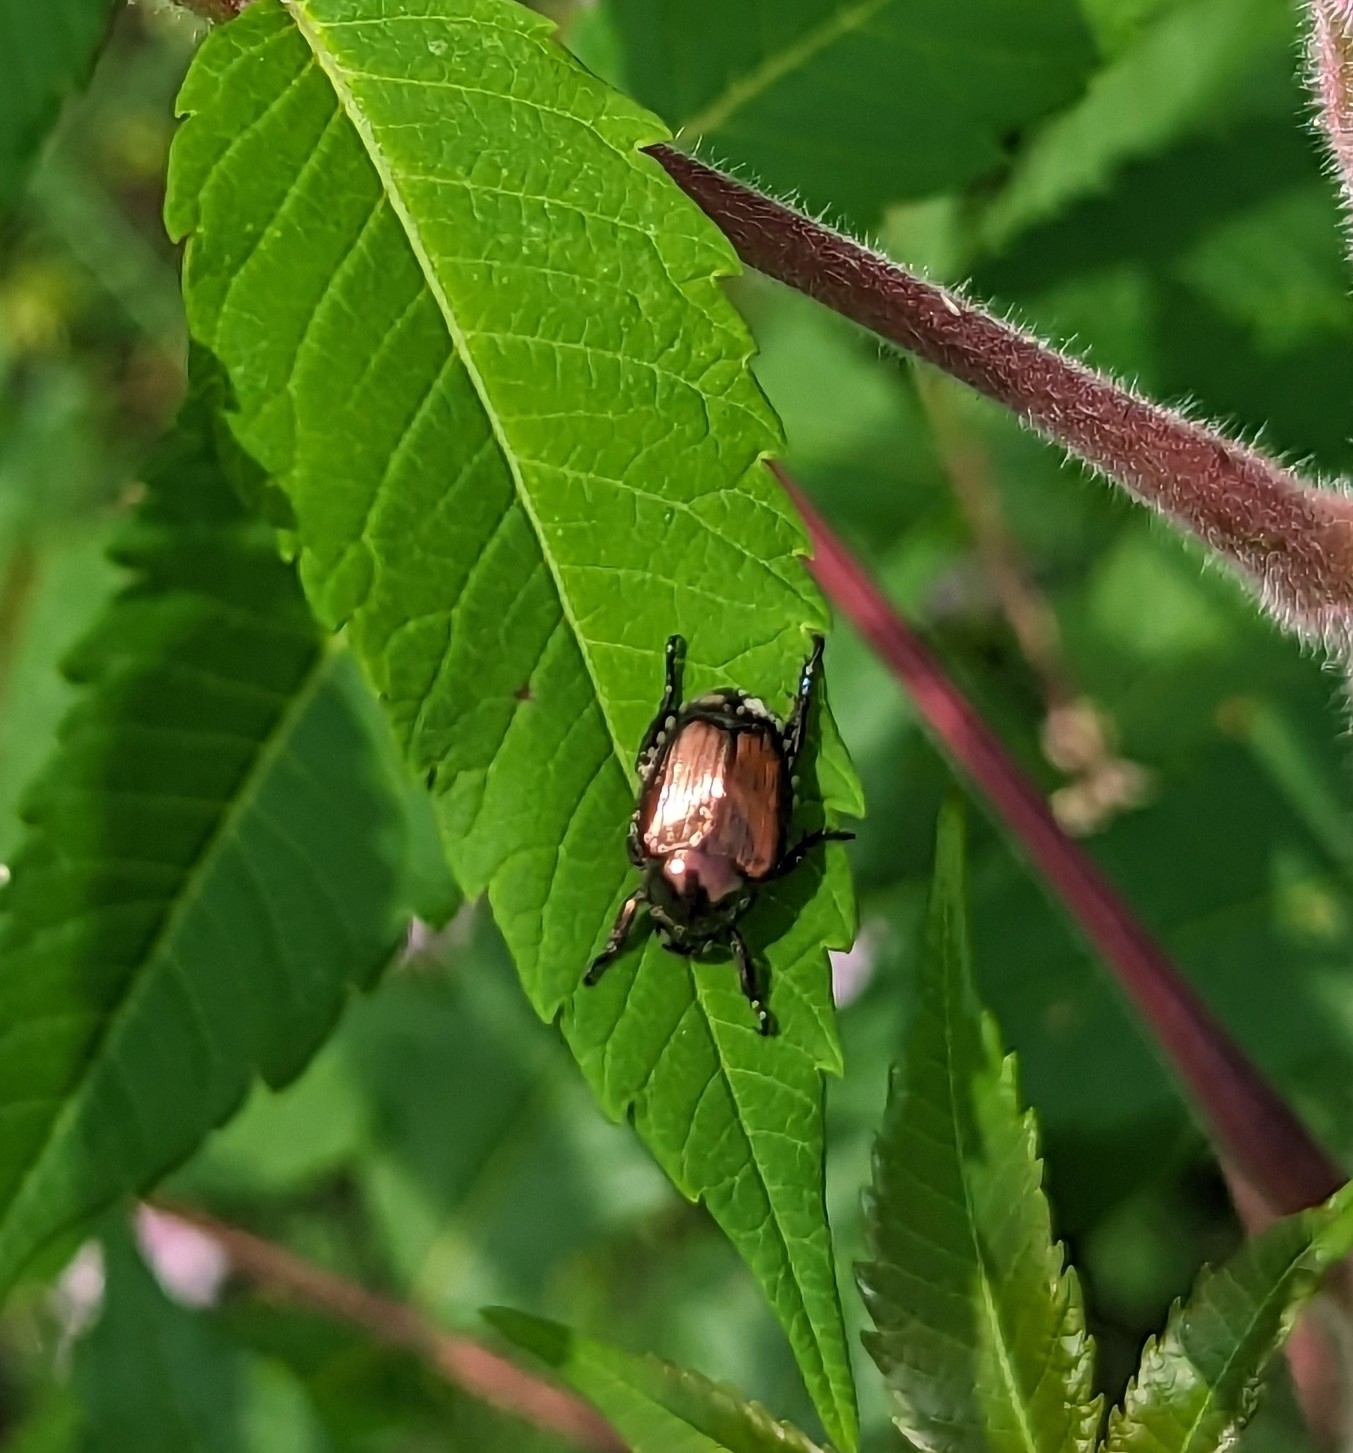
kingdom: Animalia
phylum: Arthropoda
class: Insecta
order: Coleoptera
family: Scarabaeidae
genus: Popillia
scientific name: Popillia japonica
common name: Japanese beetle
